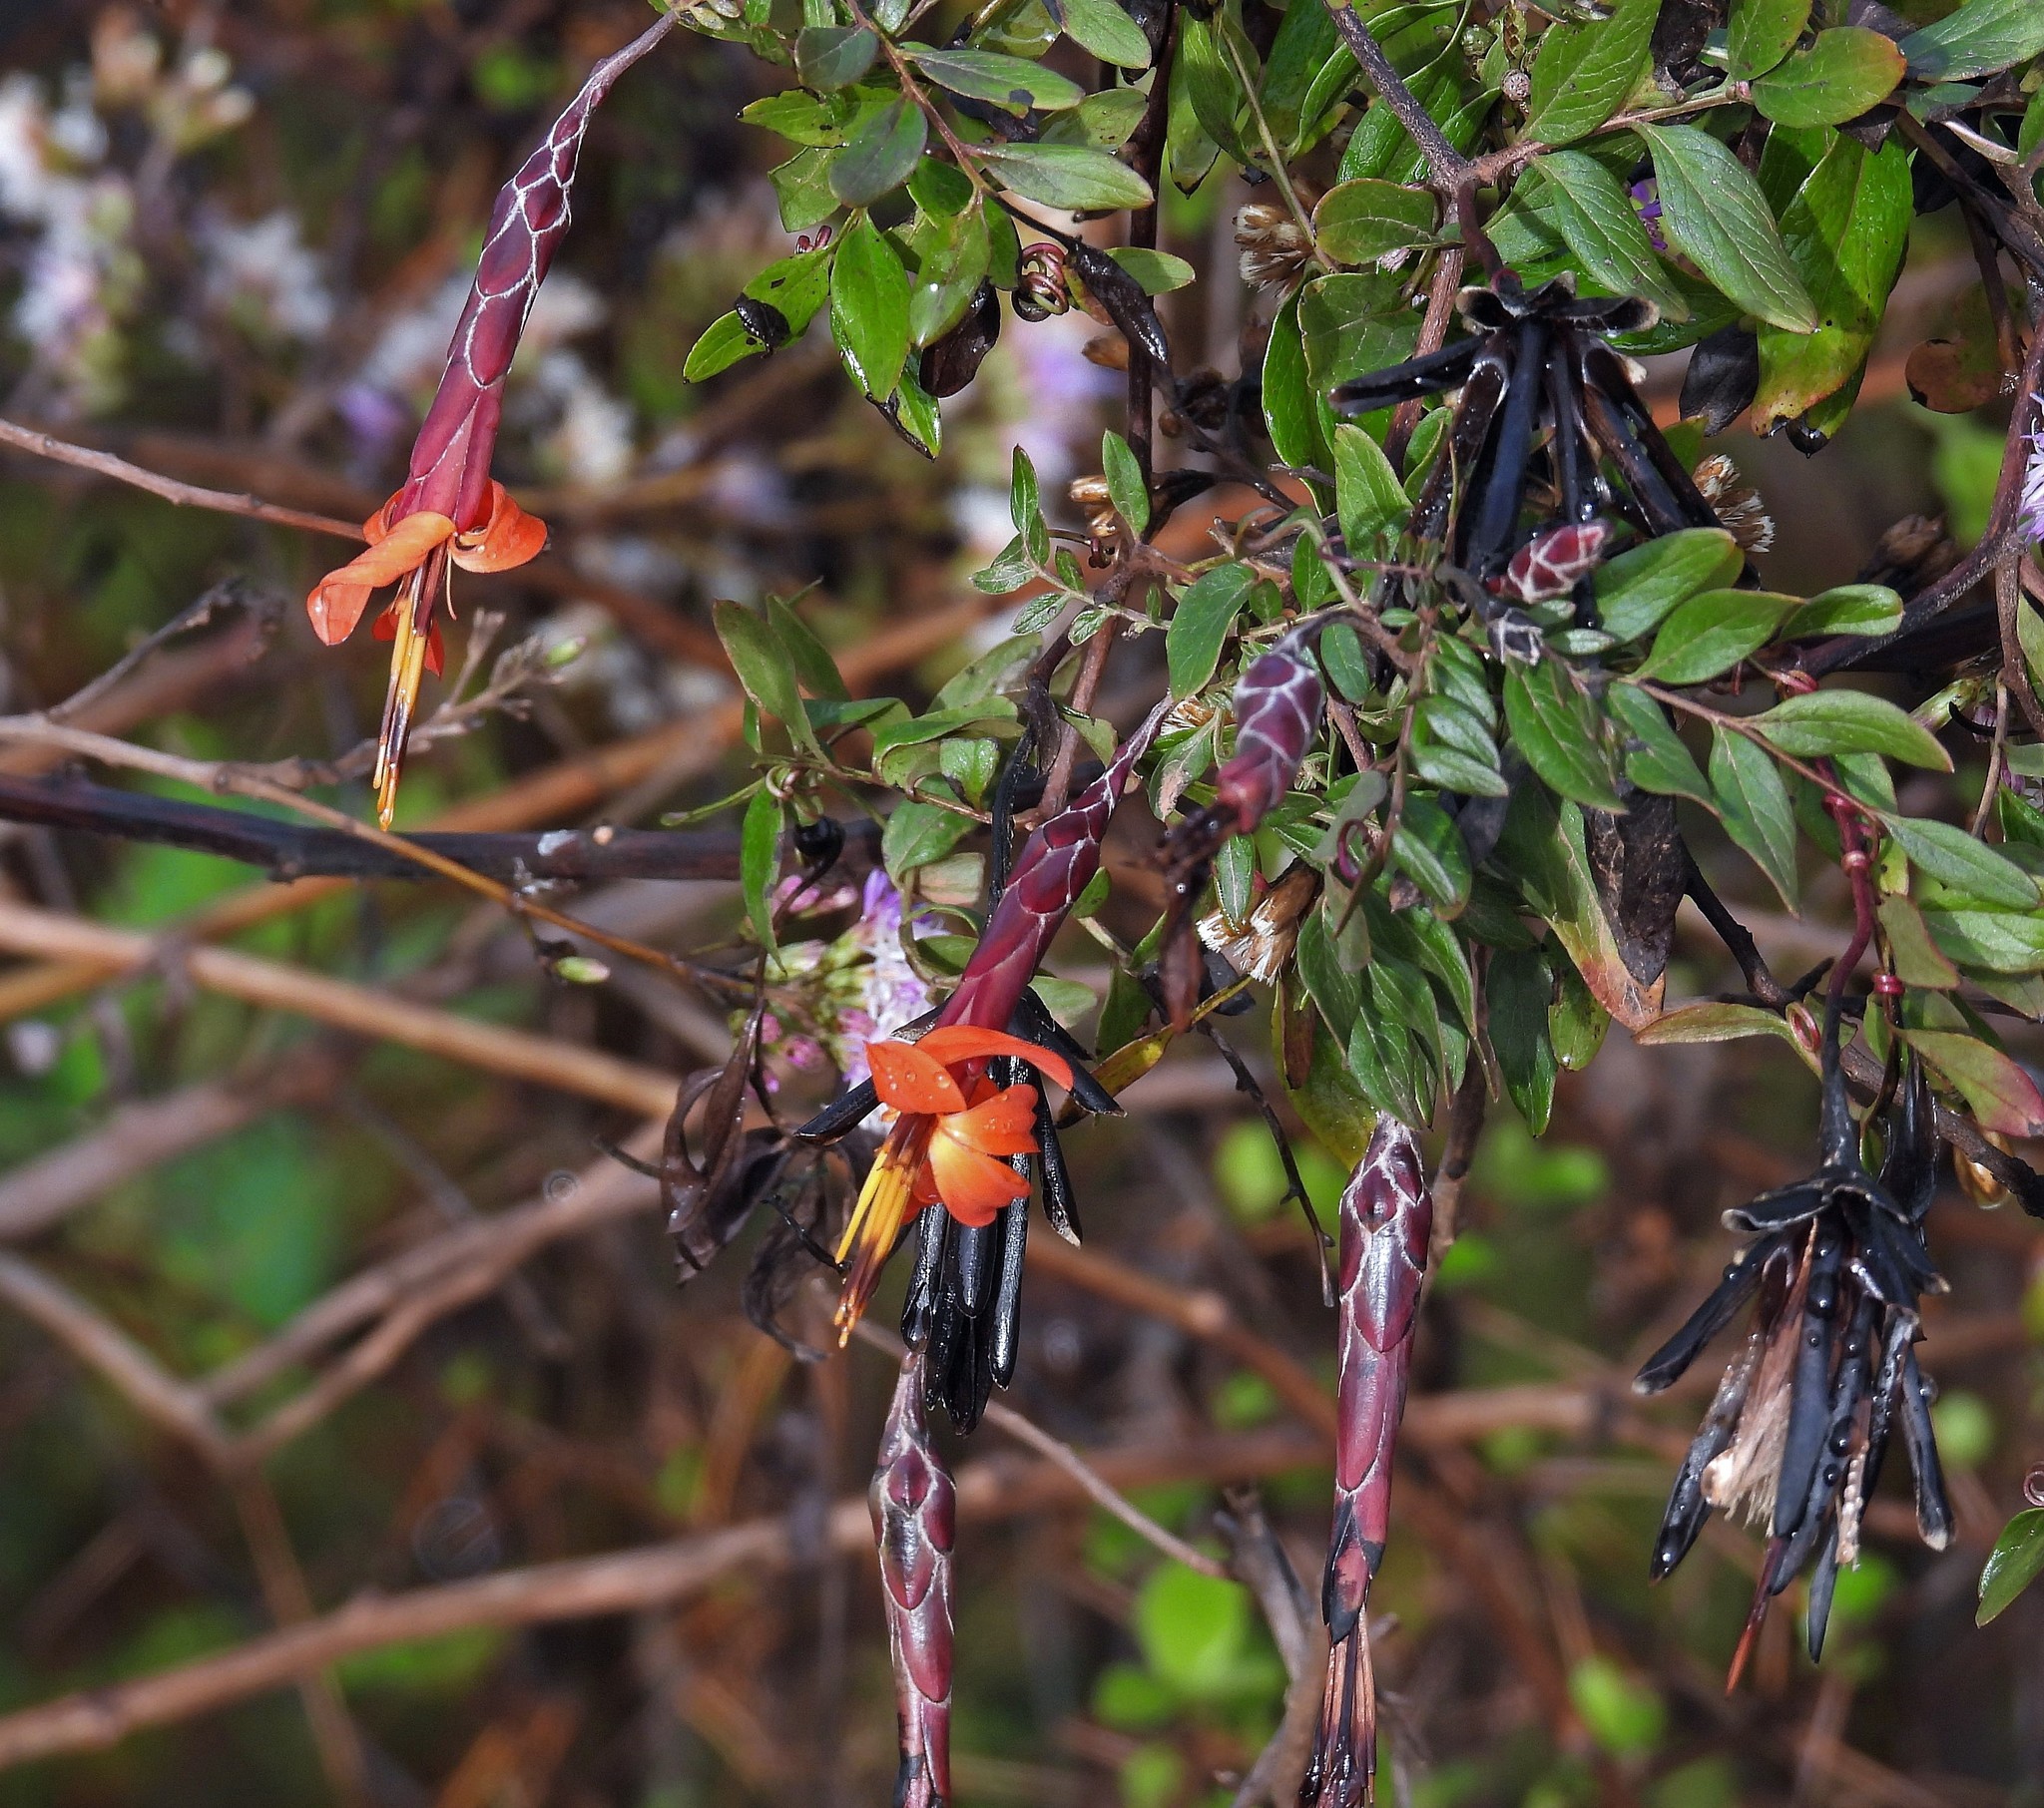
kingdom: Plantae
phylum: Tracheophyta
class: Magnoliopsida
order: Asterales
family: Asteraceae
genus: Mutisia
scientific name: Mutisia acuminata
